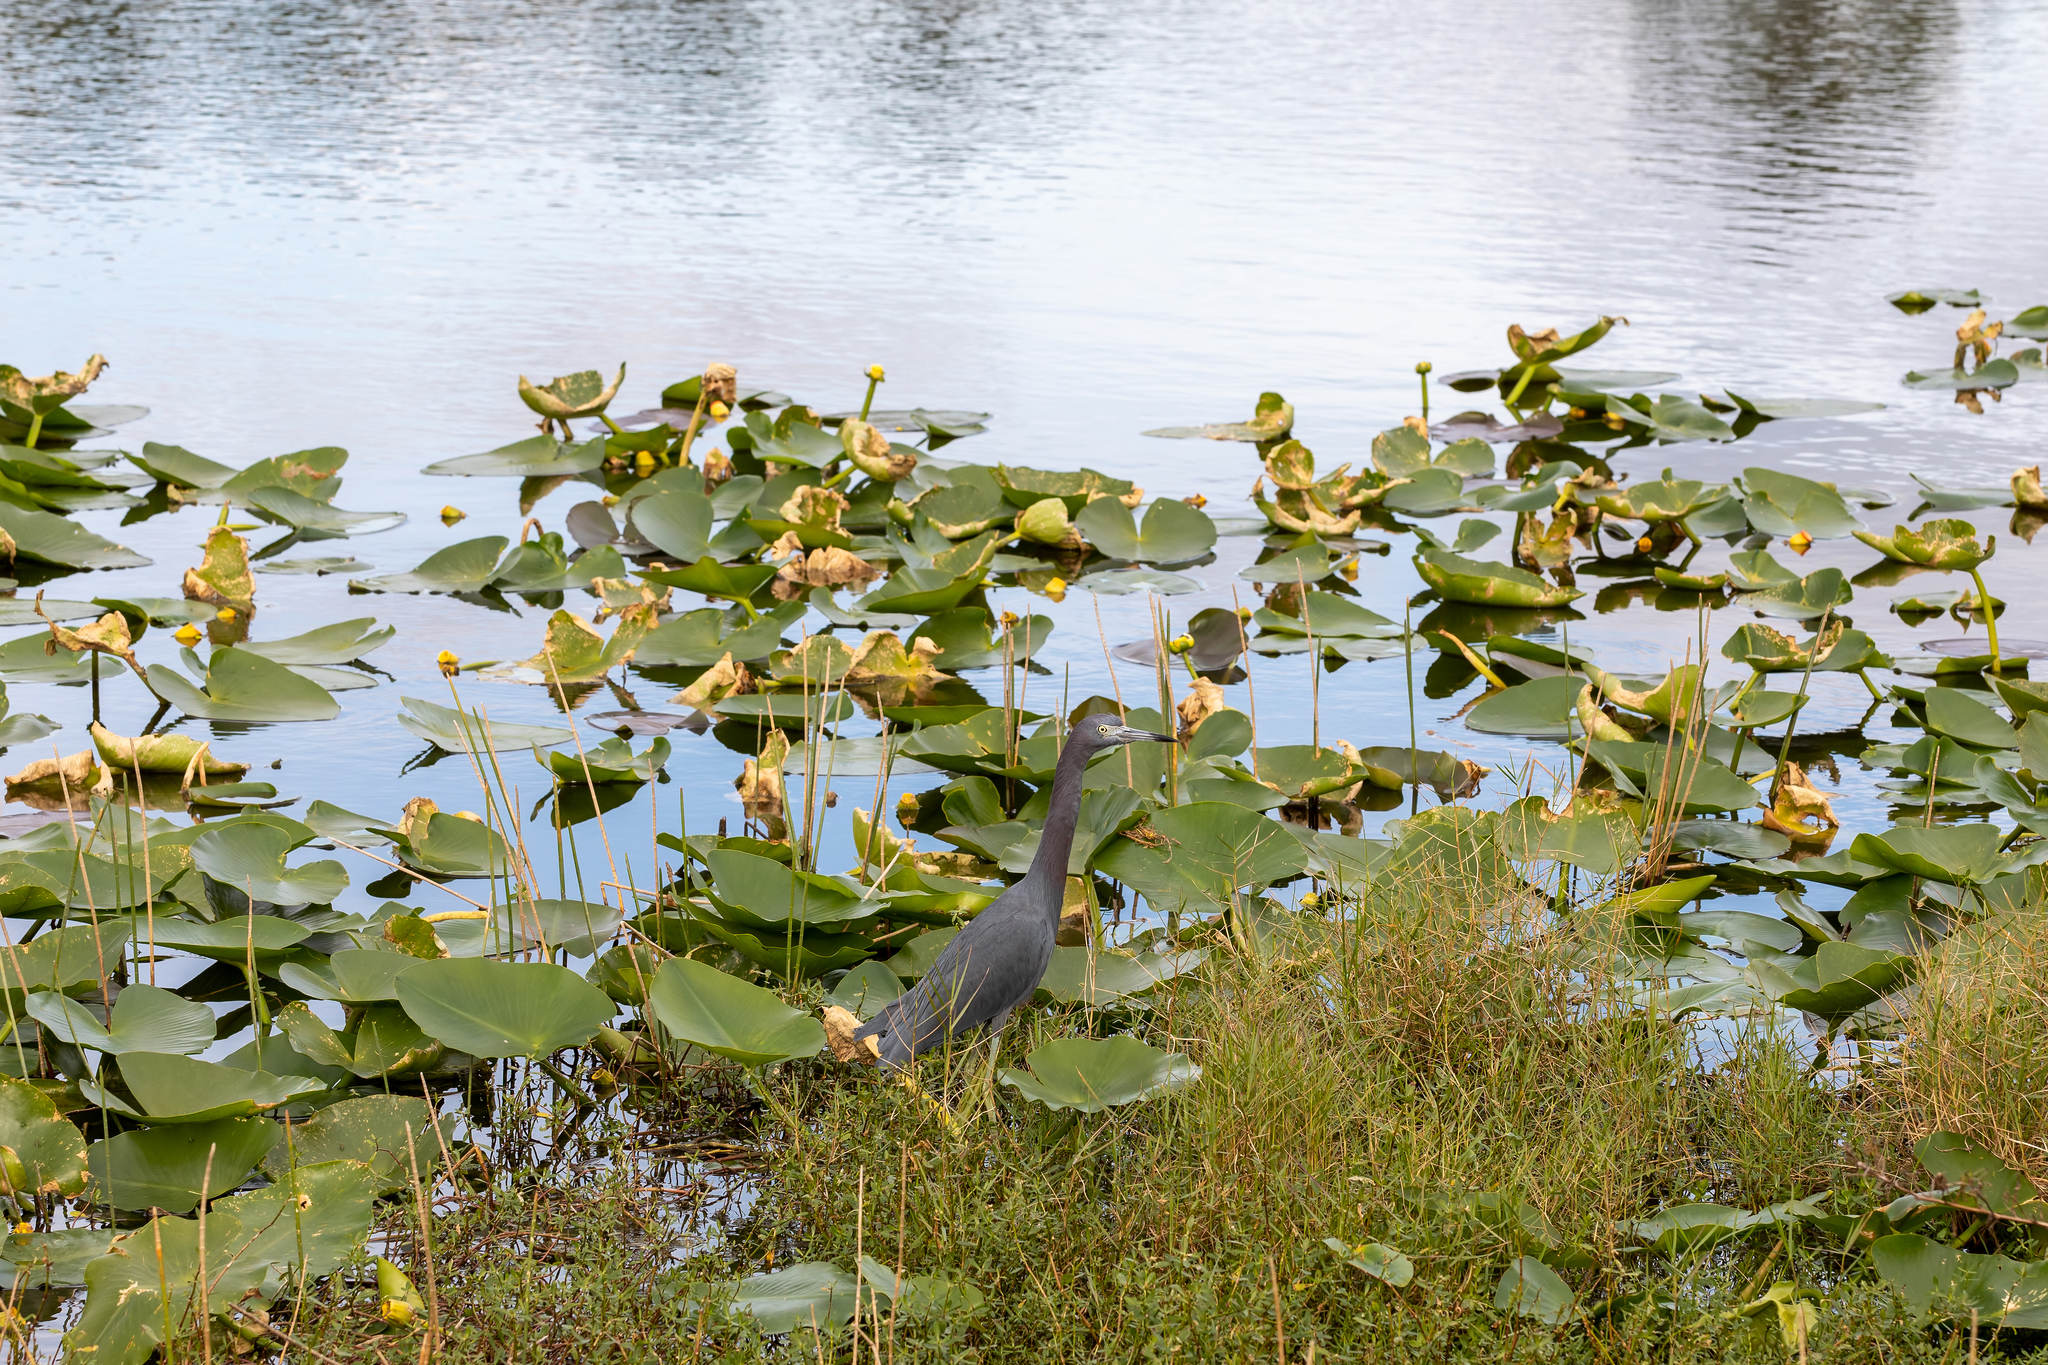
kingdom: Animalia
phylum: Chordata
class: Aves
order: Pelecaniformes
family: Ardeidae
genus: Egretta
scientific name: Egretta caerulea
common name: Little blue heron
